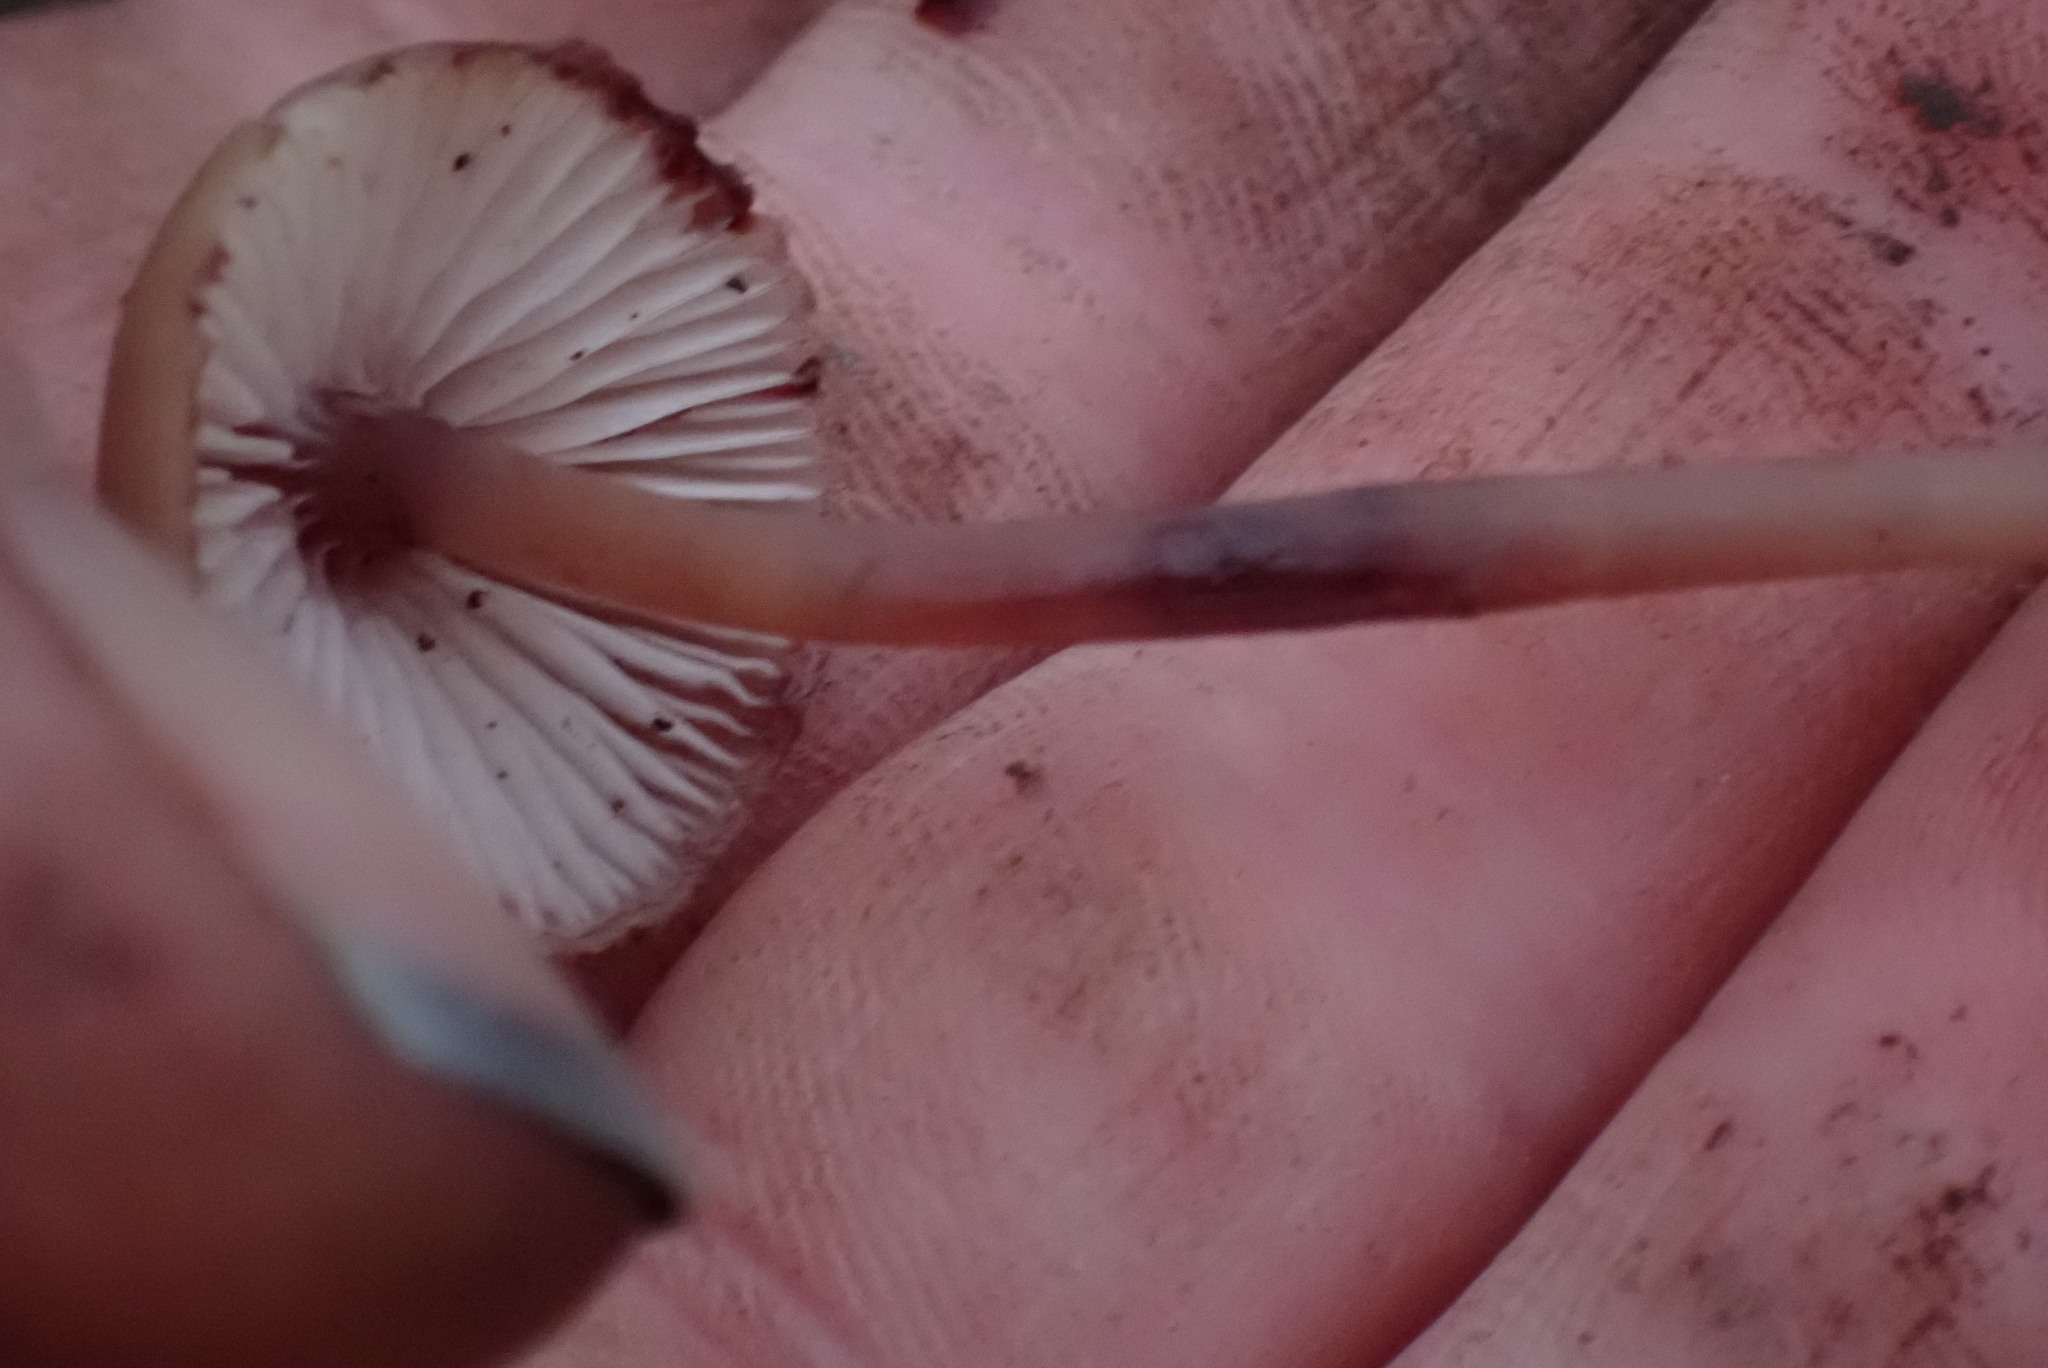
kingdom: Fungi
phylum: Basidiomycota
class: Agaricomycetes
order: Agaricales
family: Mycenaceae
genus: Mycena
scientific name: Mycena haematopus
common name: Burgundydrop bonnet
